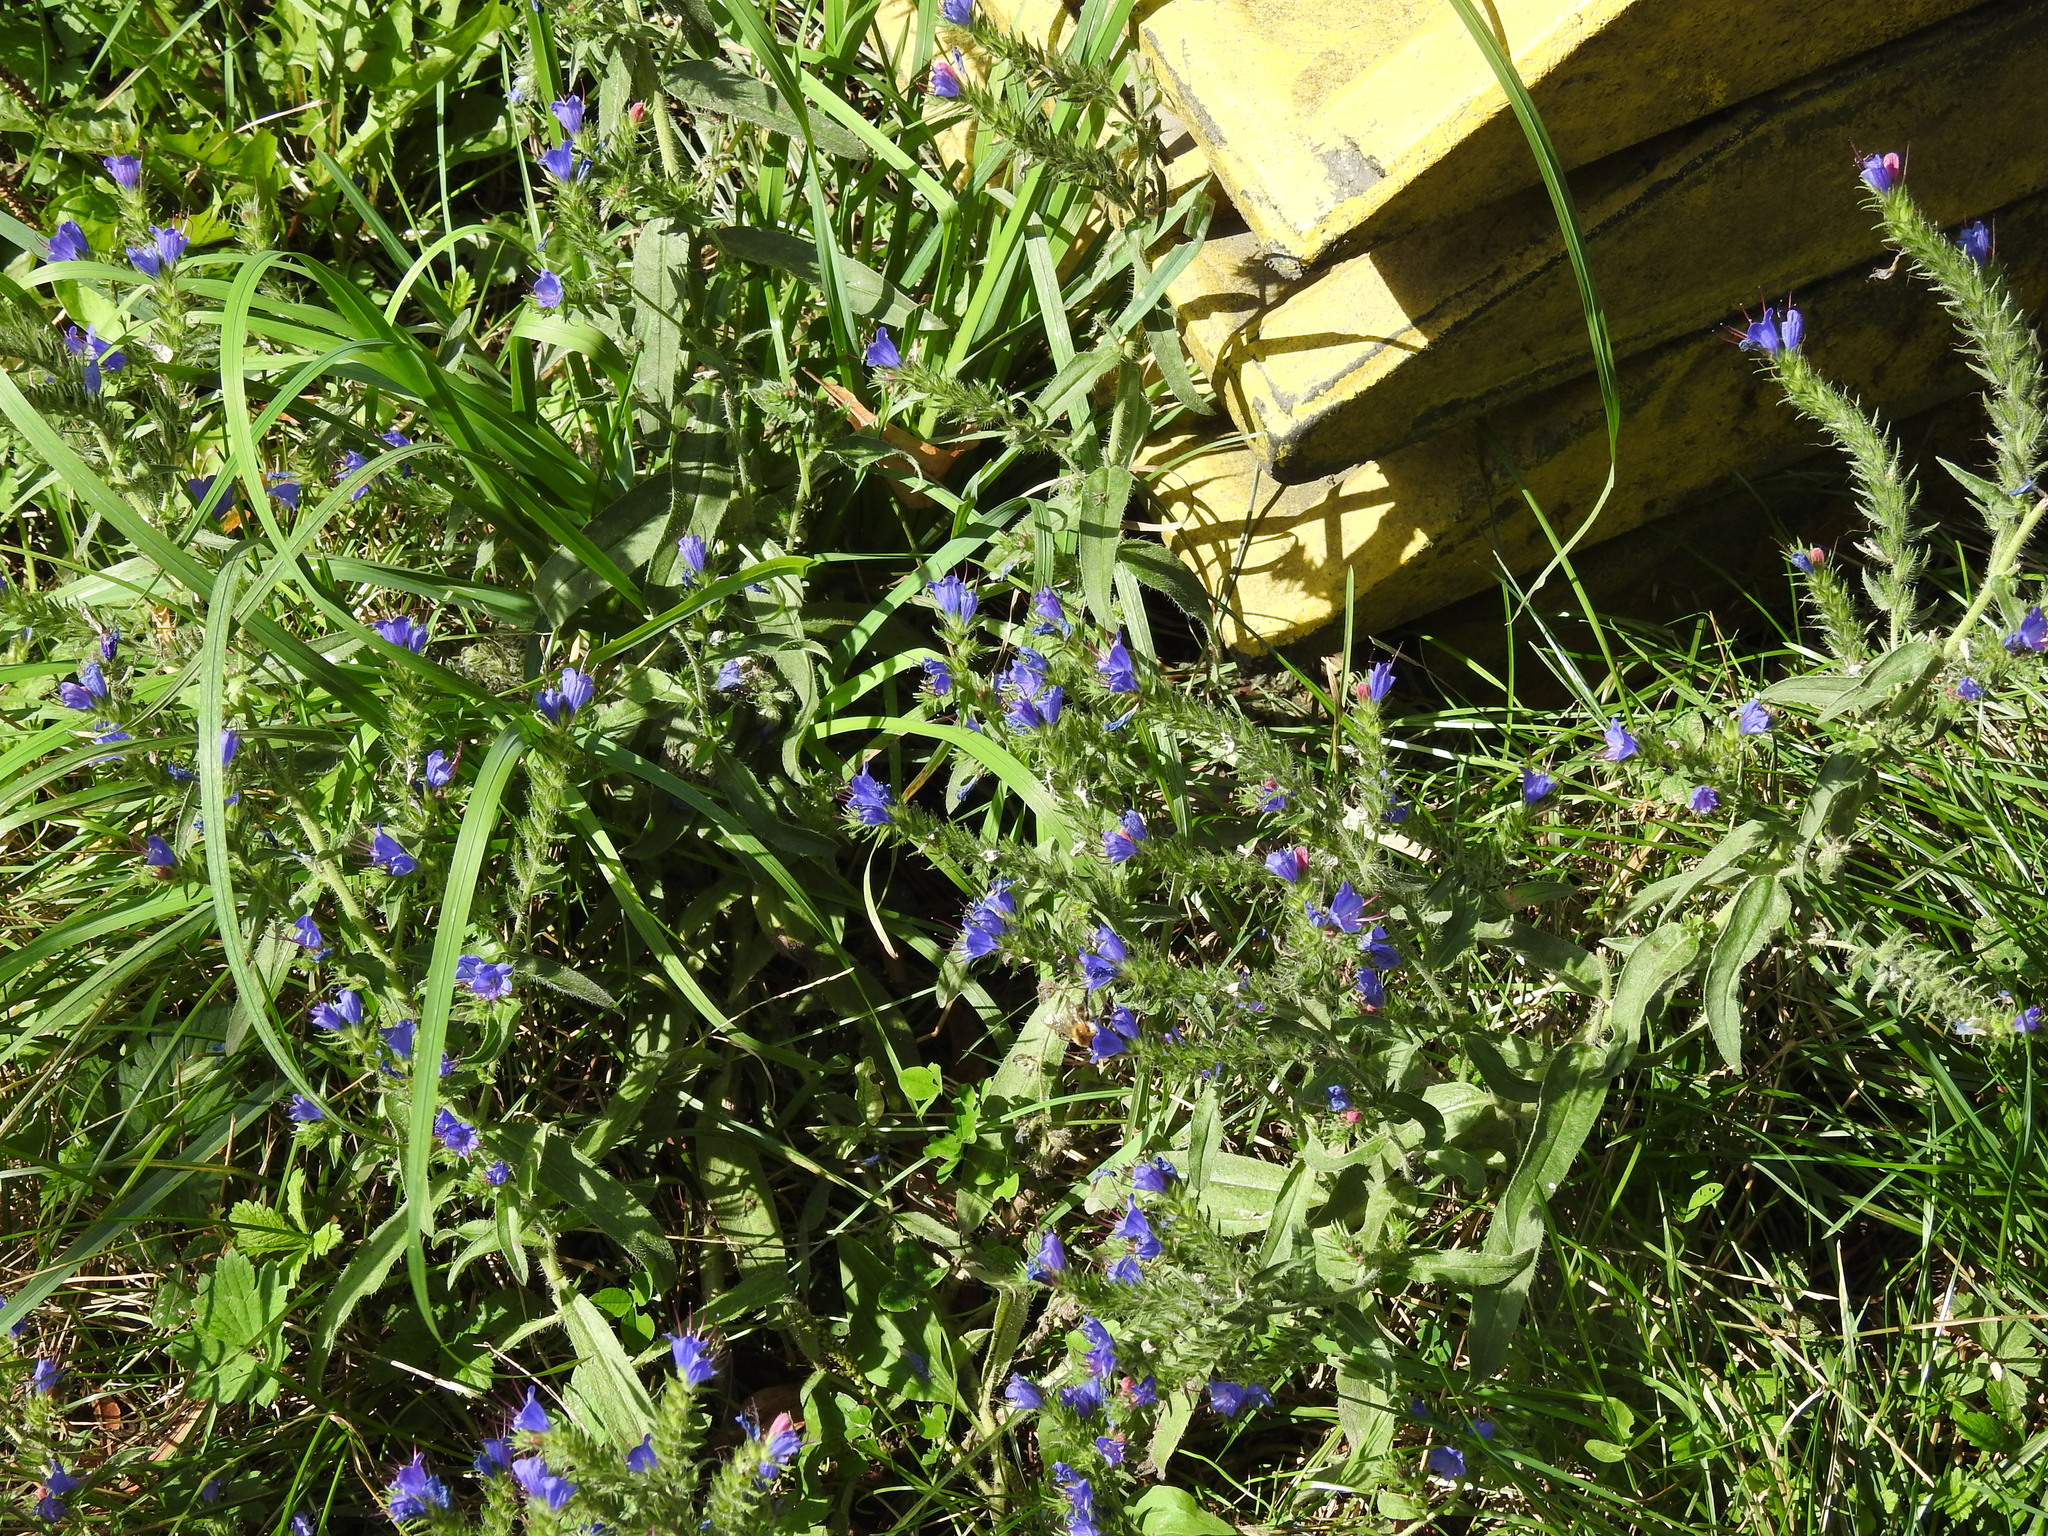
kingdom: Plantae
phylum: Tracheophyta
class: Magnoliopsida
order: Boraginales
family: Boraginaceae
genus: Echium
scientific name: Echium vulgare
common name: Common viper's bugloss
